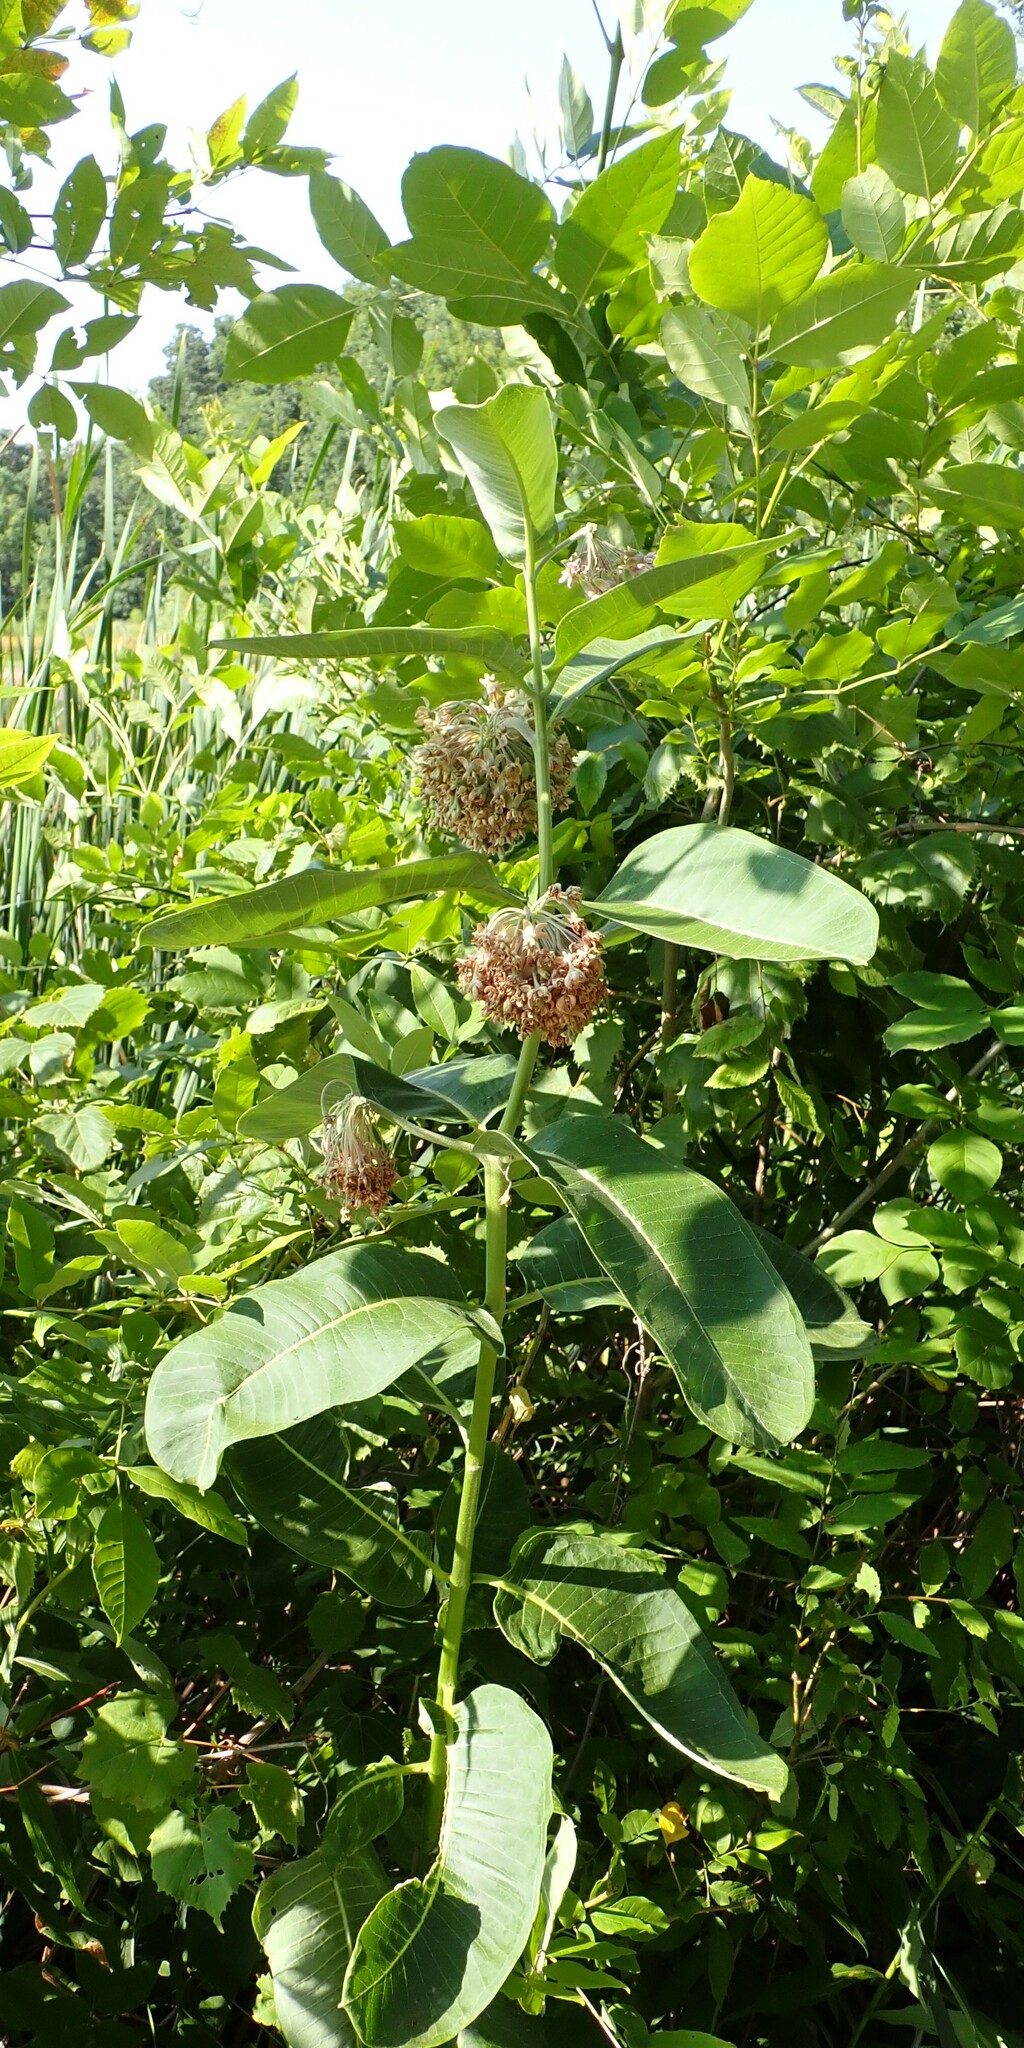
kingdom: Plantae
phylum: Tracheophyta
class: Magnoliopsida
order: Gentianales
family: Apocynaceae
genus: Asclepias
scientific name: Asclepias syriaca
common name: Common milkweed
